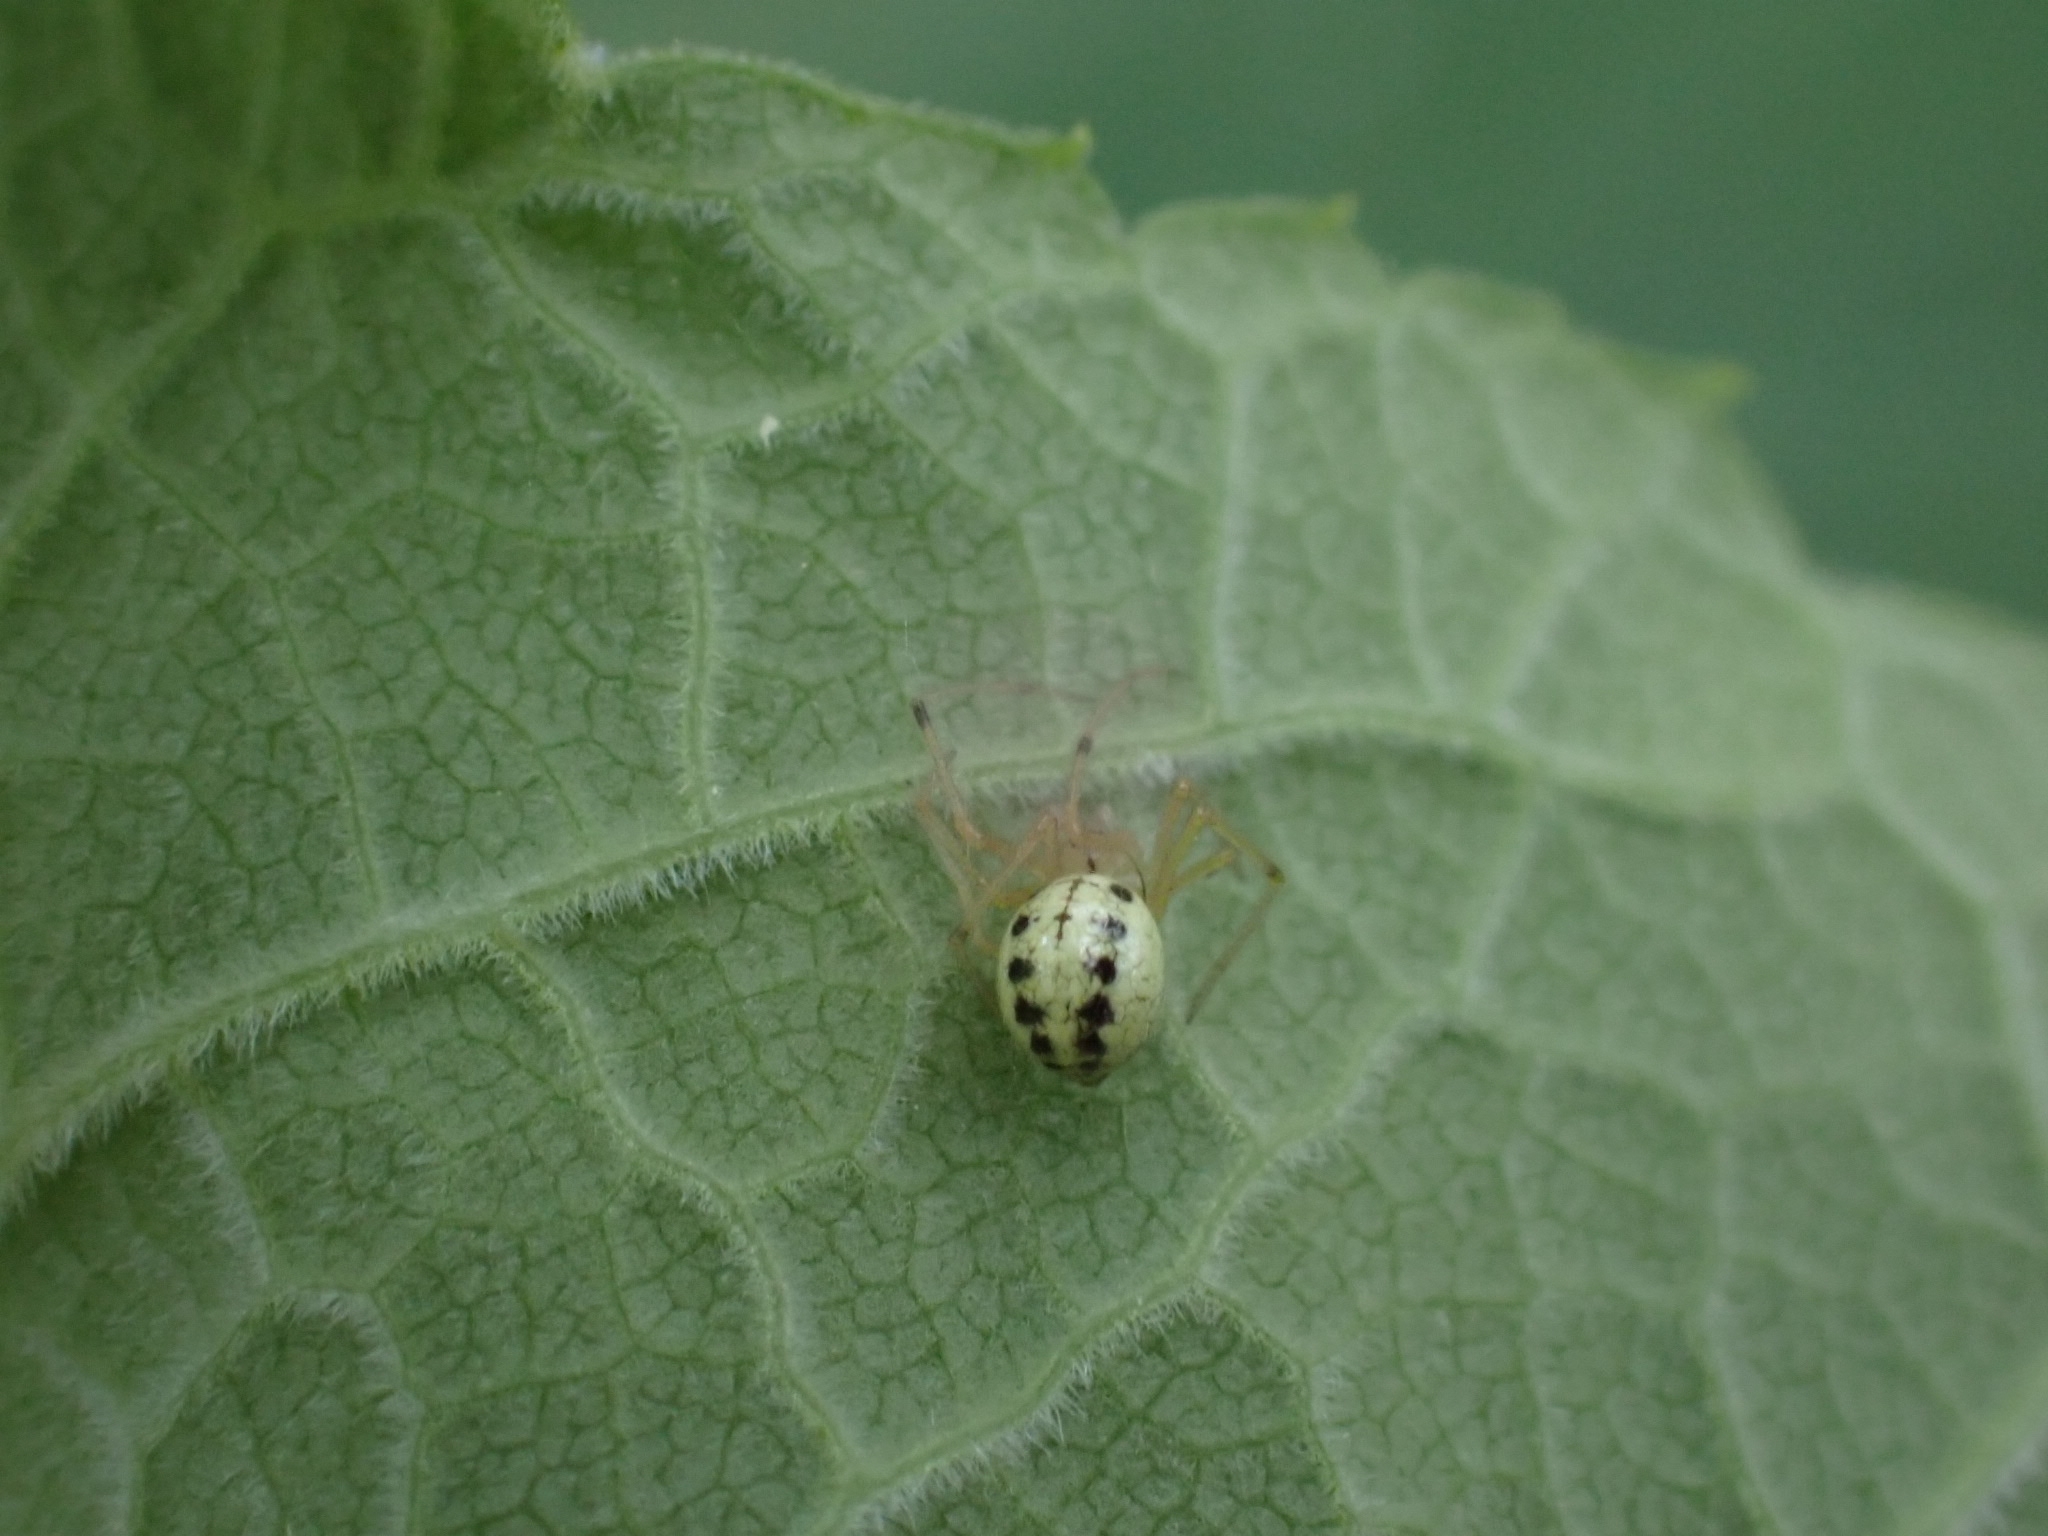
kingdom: Animalia
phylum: Arthropoda
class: Arachnida
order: Araneae
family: Theridiidae
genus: Enoplognatha
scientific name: Enoplognatha ovata
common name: Common candy-striped spider
